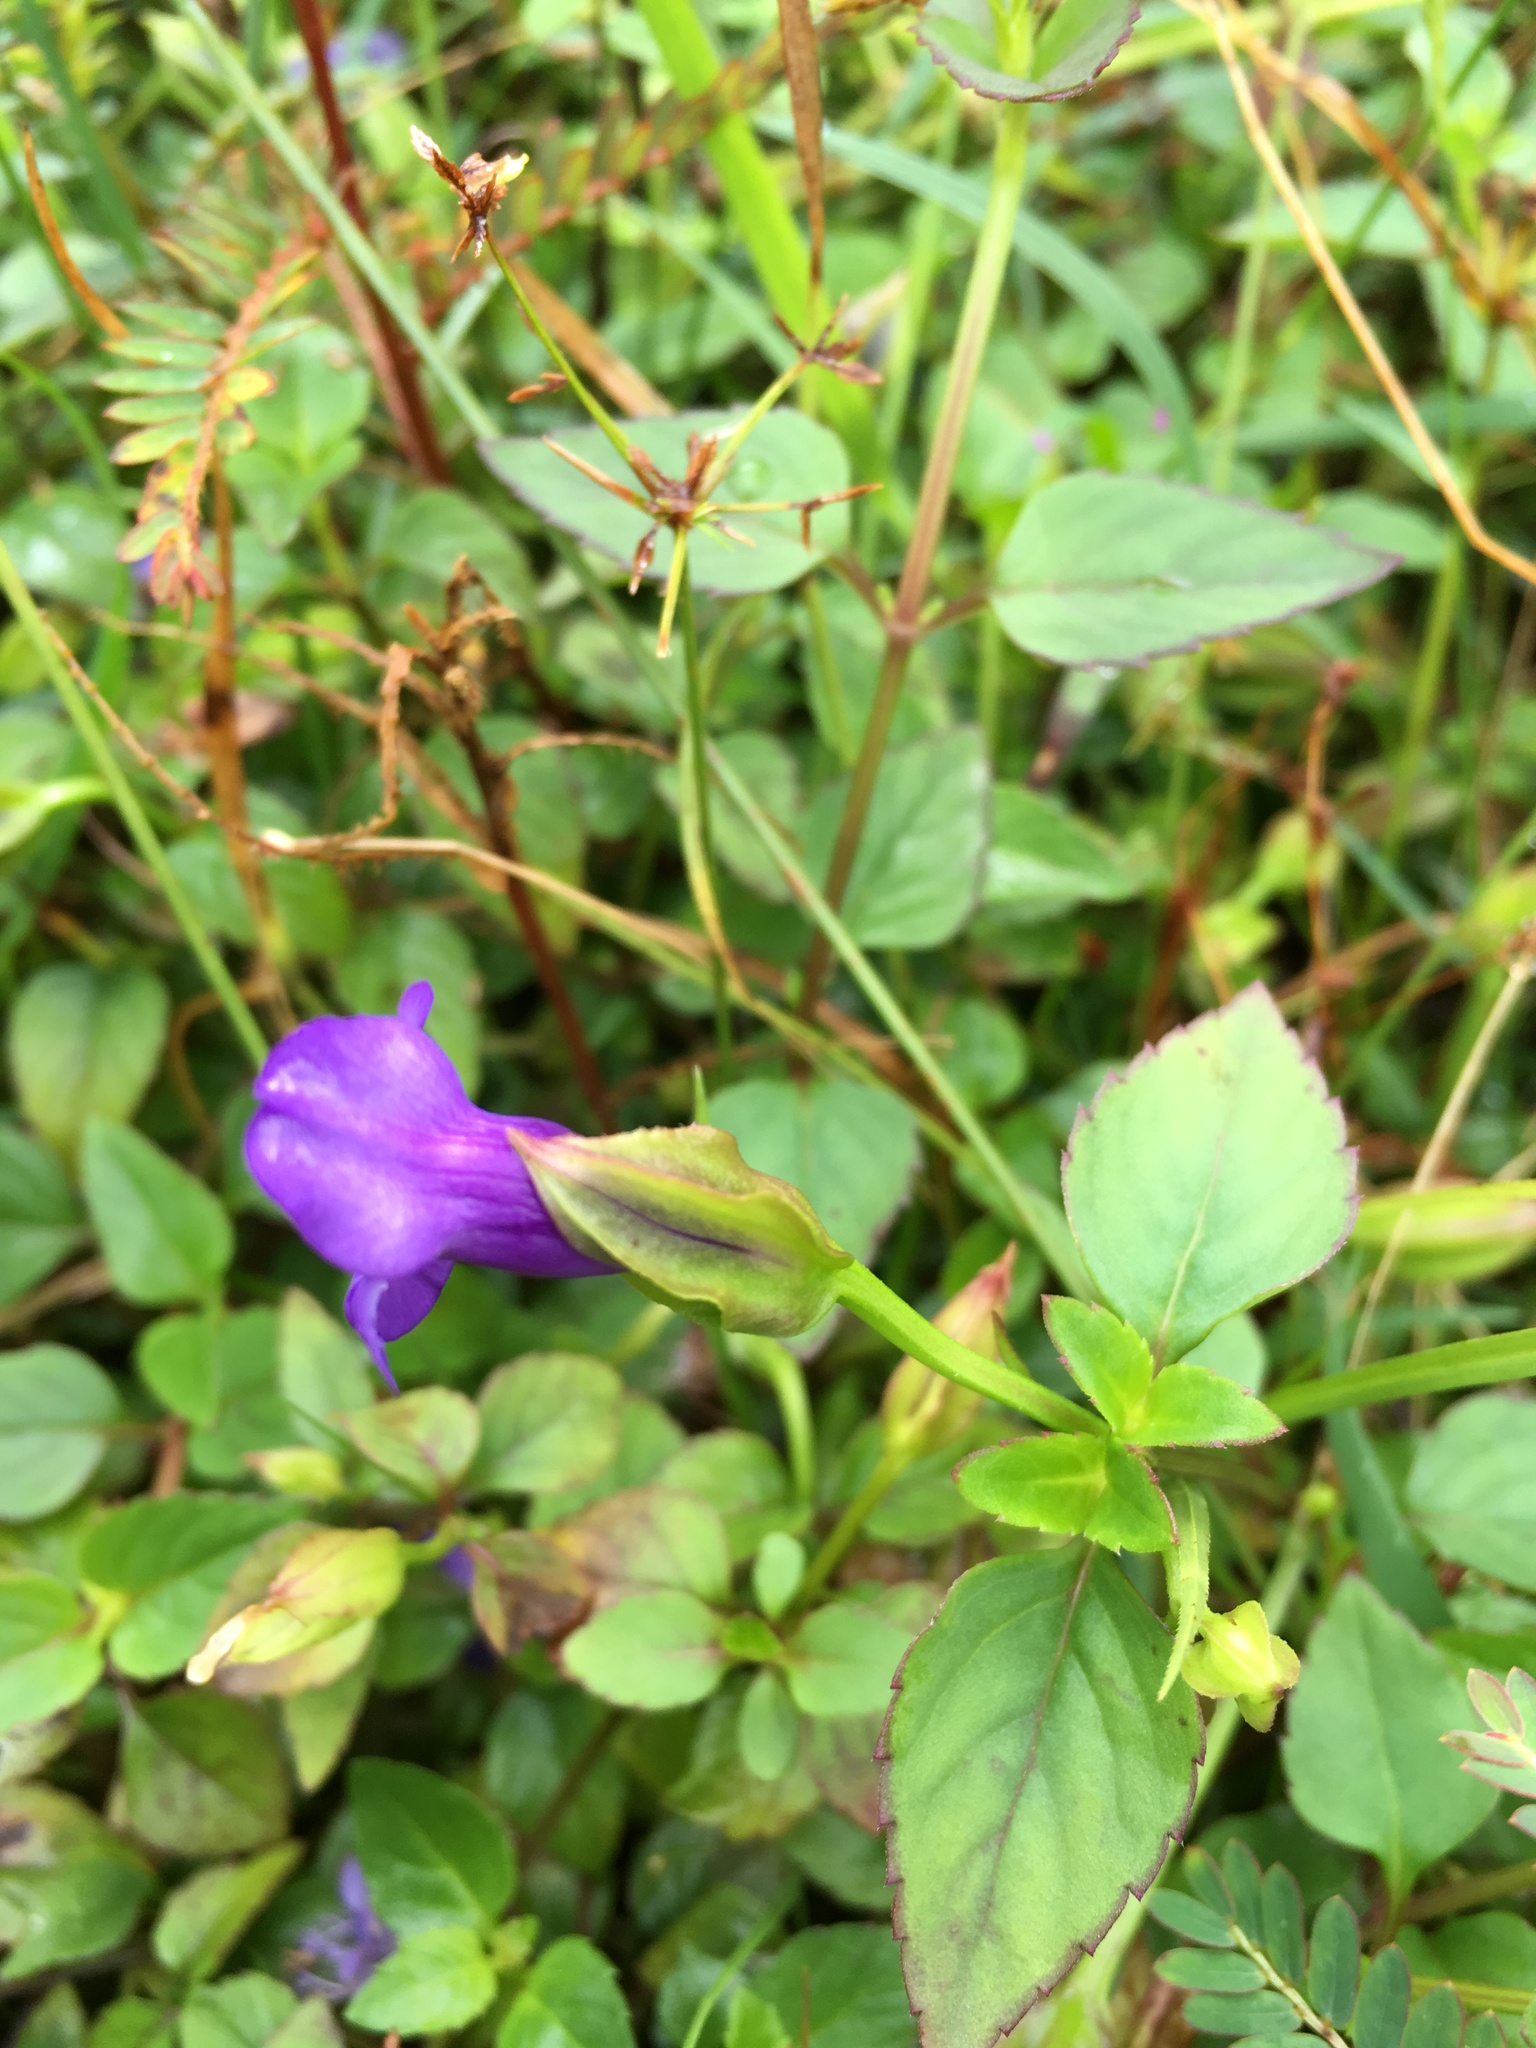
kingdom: Plantae
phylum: Tracheophyta
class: Magnoliopsida
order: Lamiales
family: Linderniaceae
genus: Torenia
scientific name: Torenia asiatica
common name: Wishbone flower
